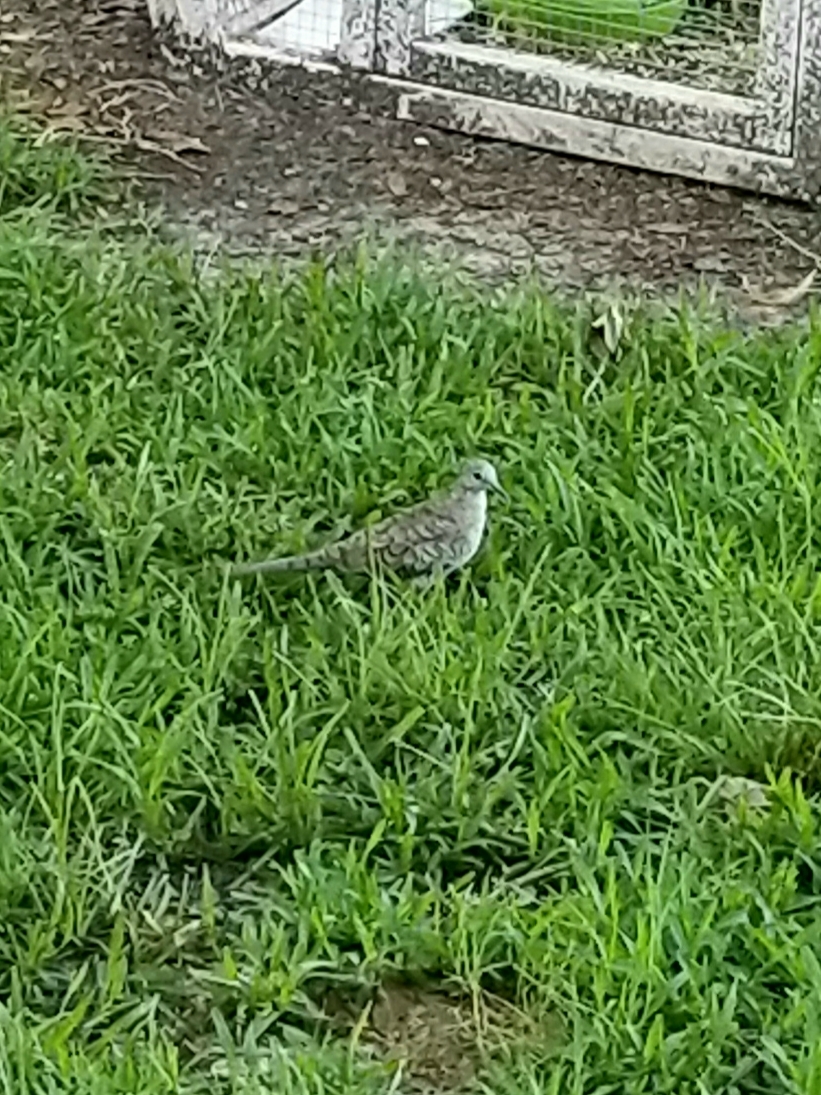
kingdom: Animalia
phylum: Chordata
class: Aves
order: Columbiformes
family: Columbidae
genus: Zenaida
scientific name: Zenaida macroura
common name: Mourning dove
